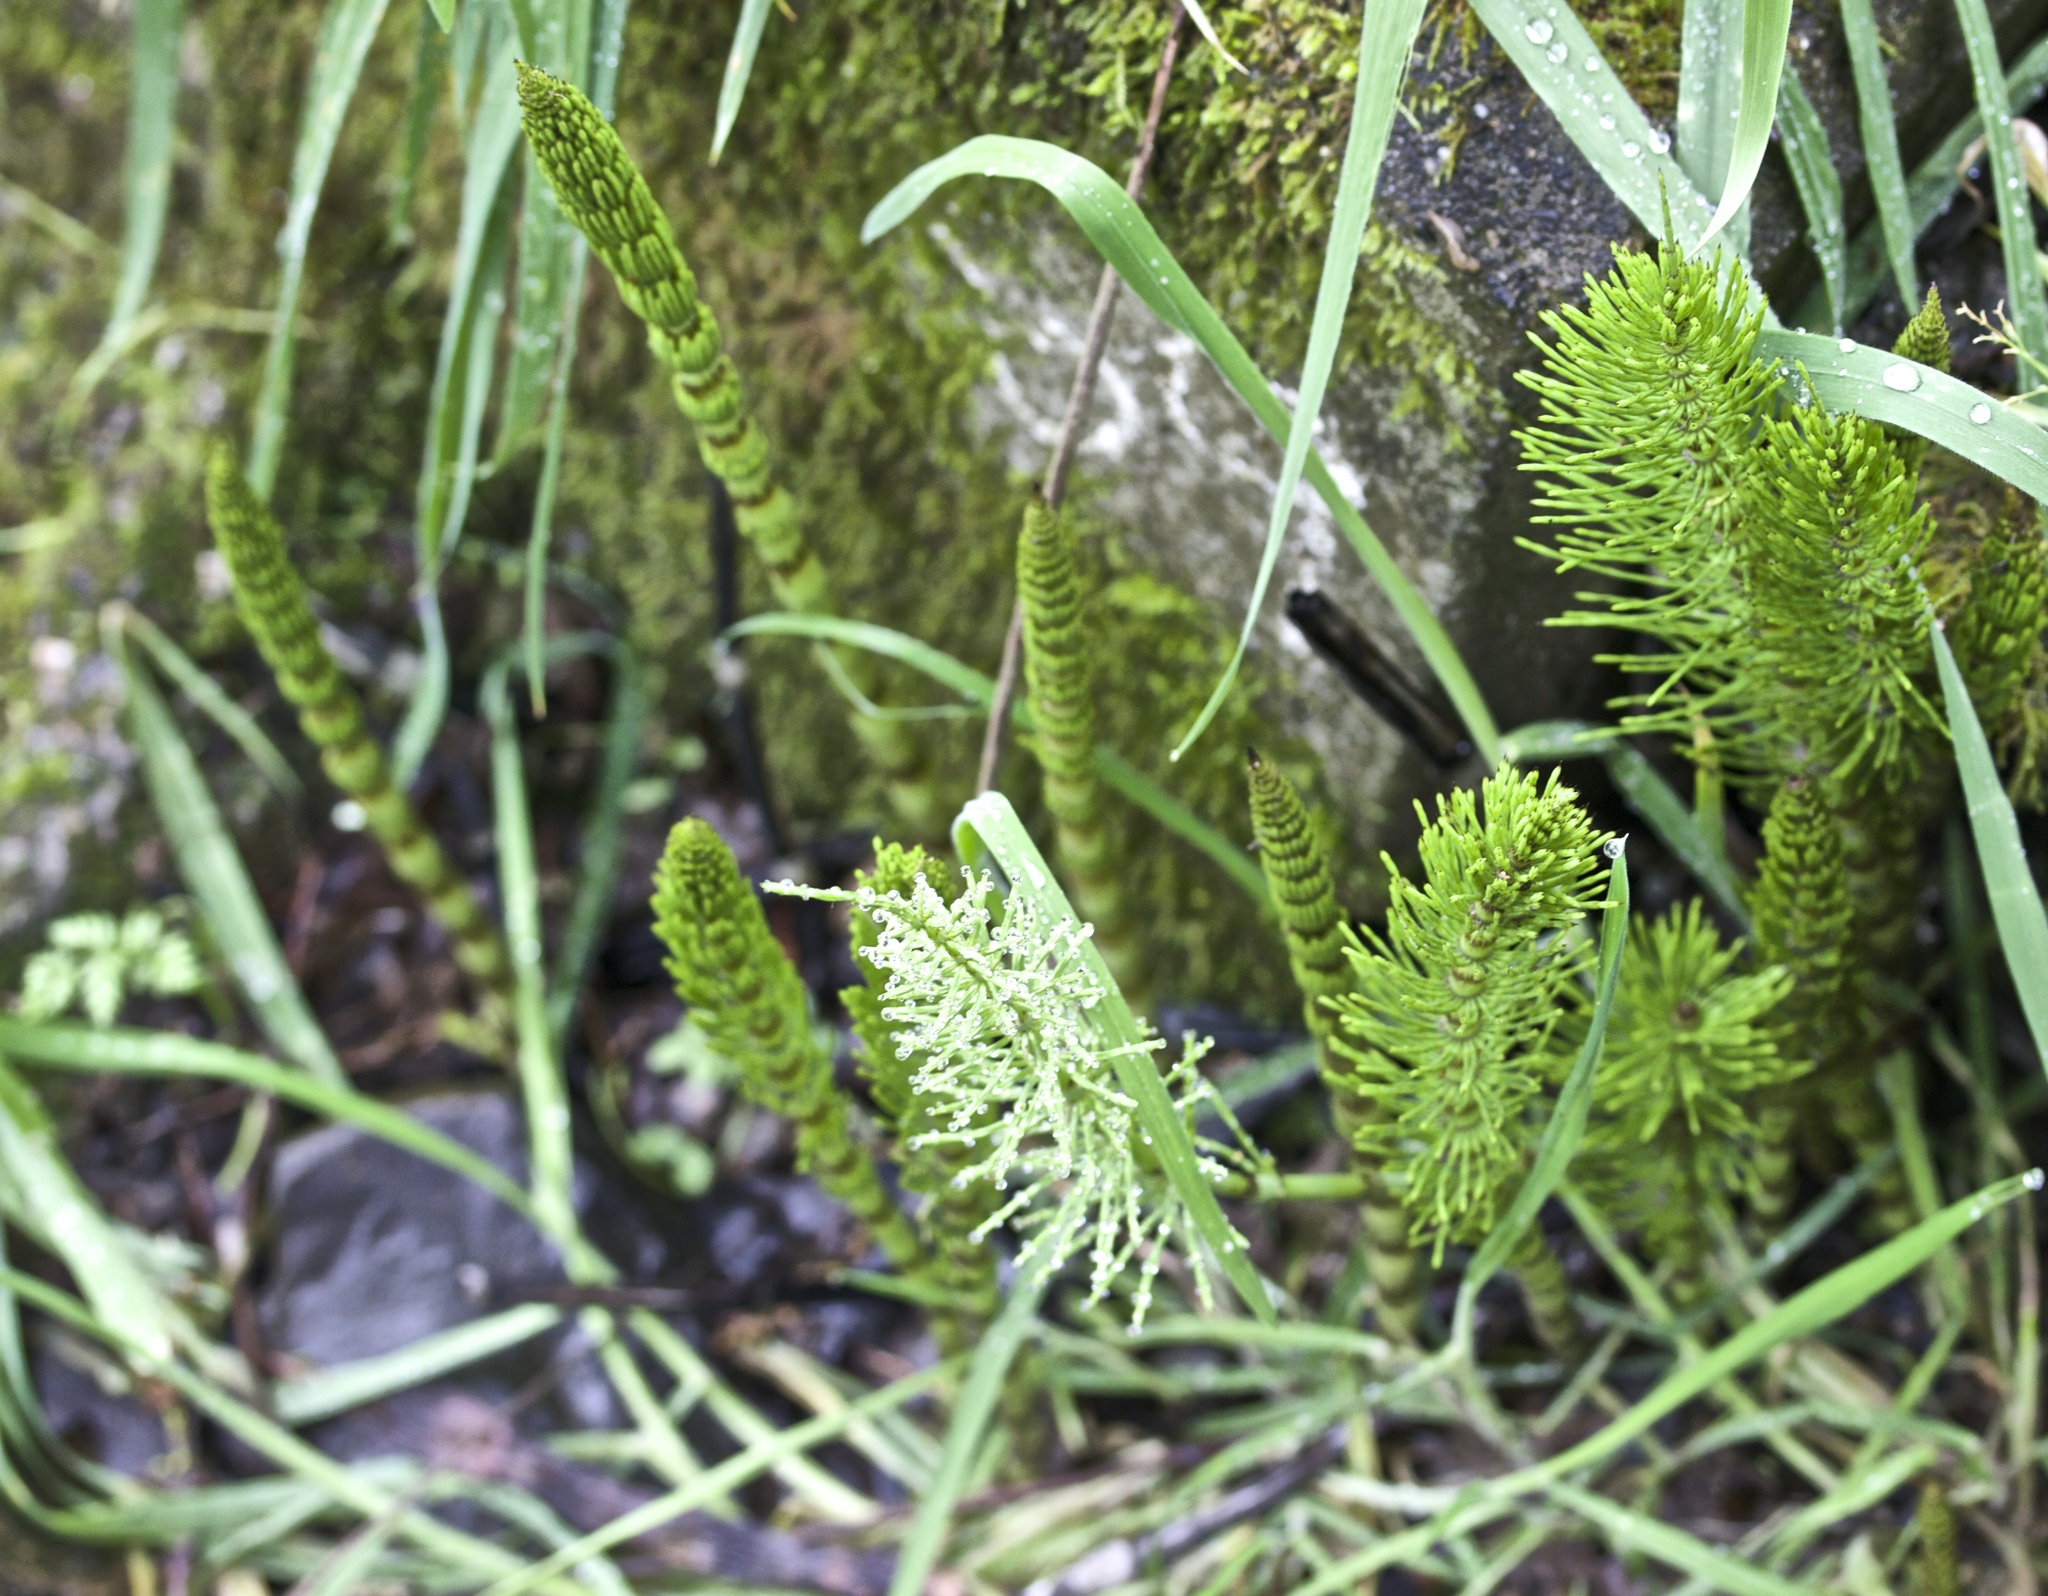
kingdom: Plantae
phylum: Tracheophyta
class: Polypodiopsida
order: Equisetales
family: Equisetaceae
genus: Equisetum
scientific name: Equisetum telmateia
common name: Great horsetail
